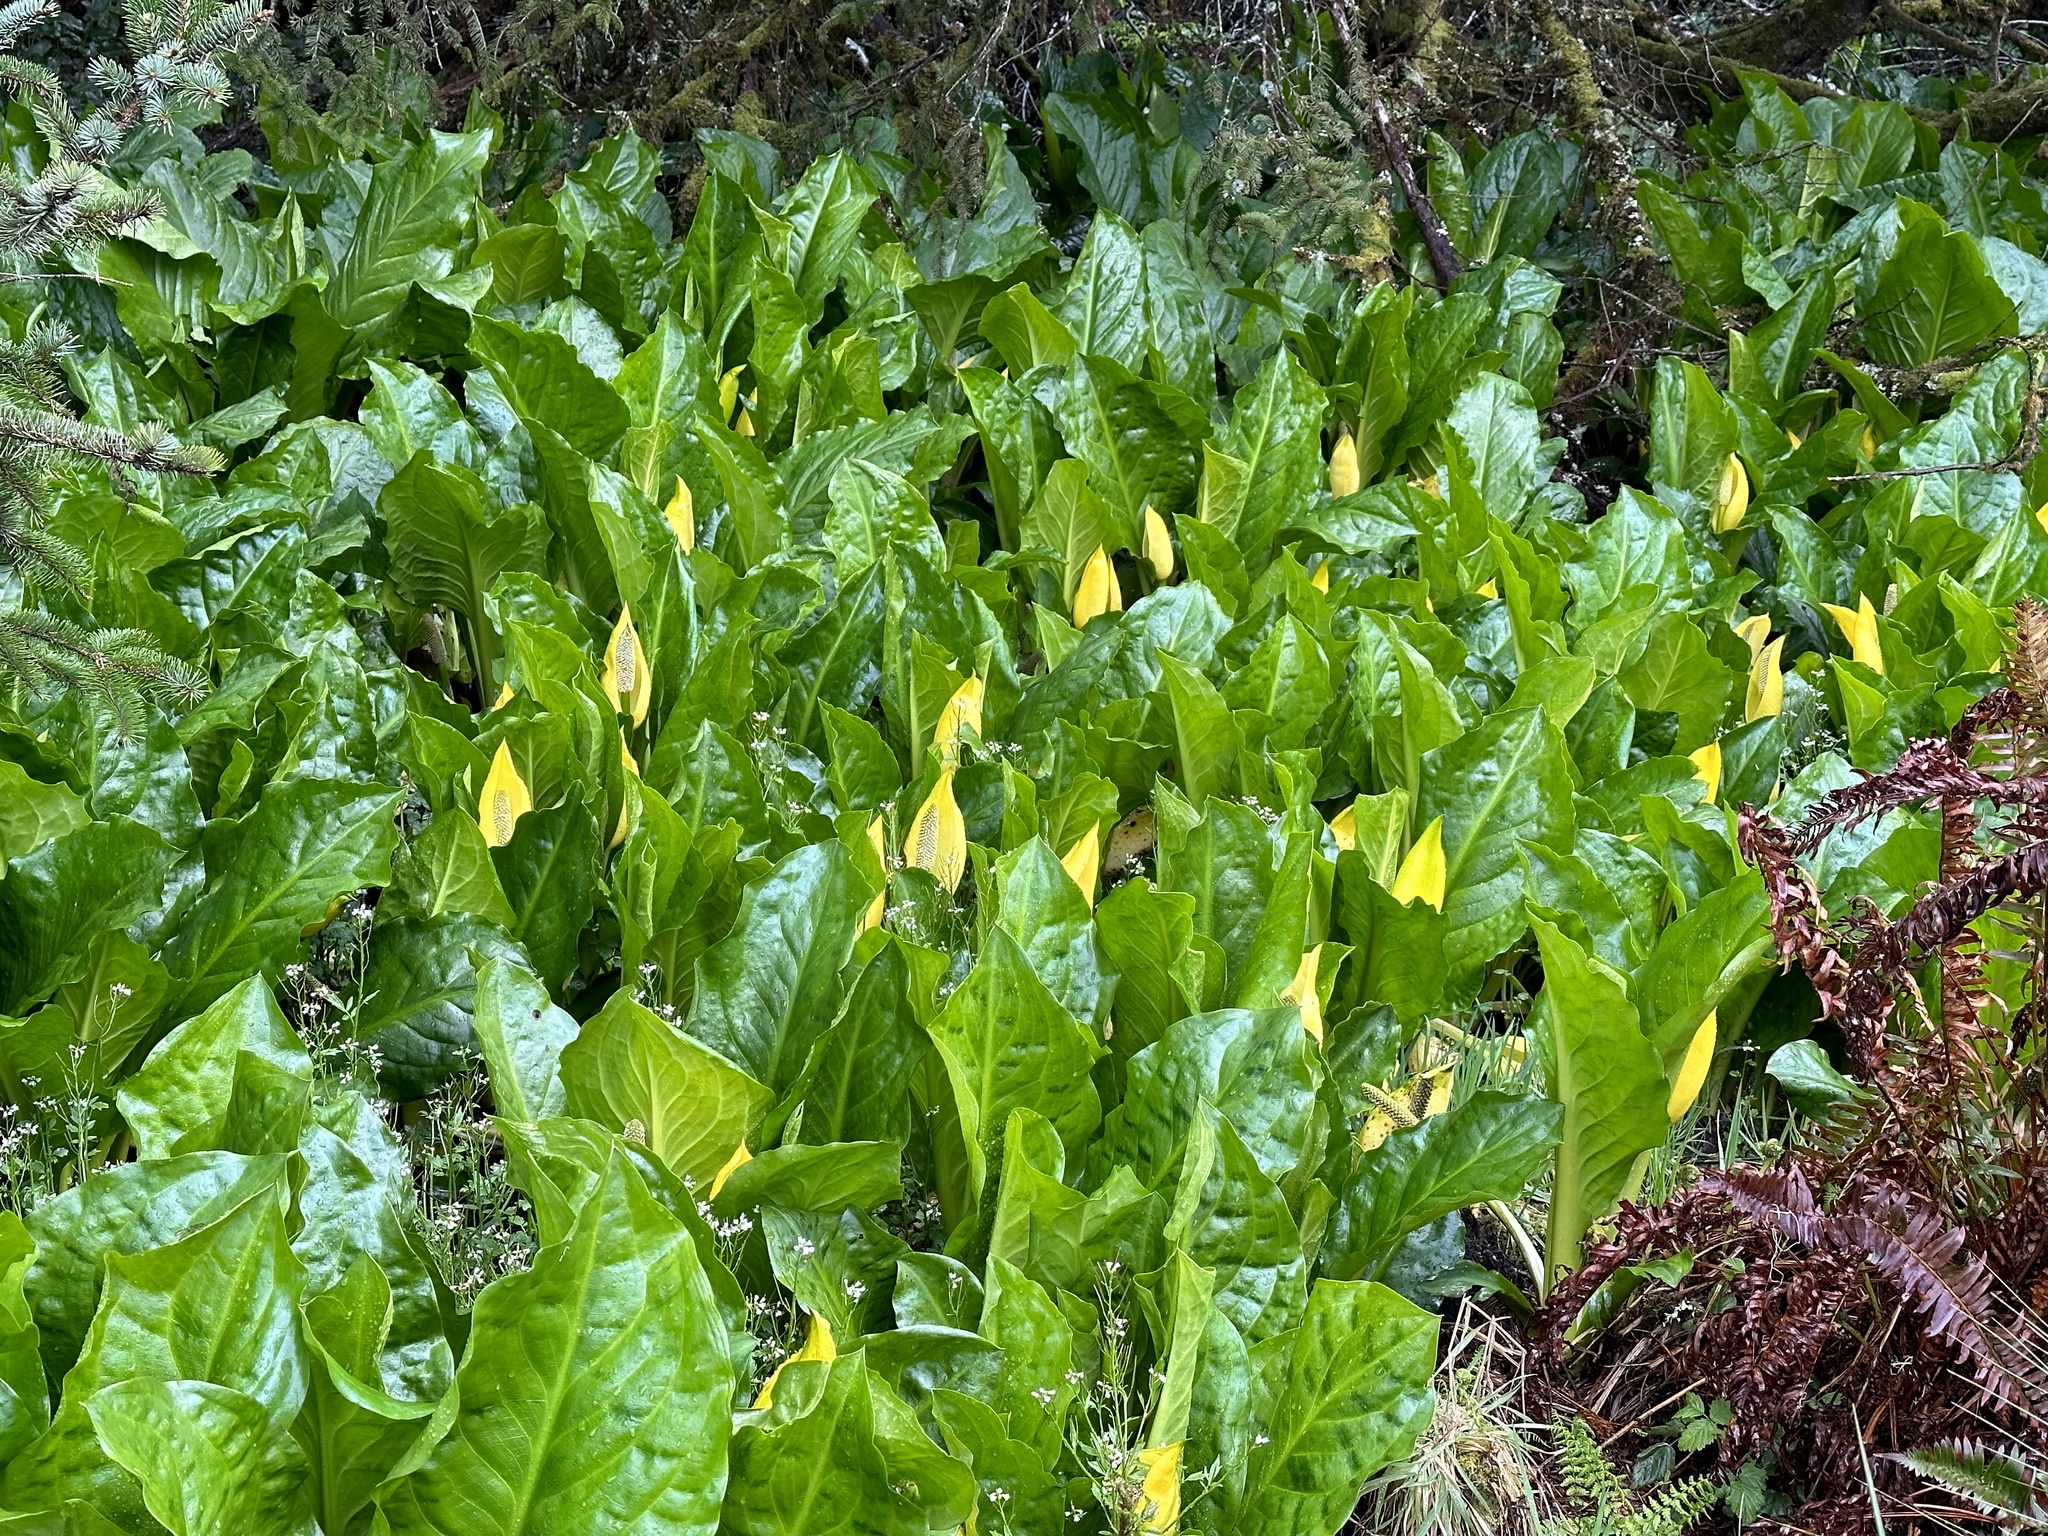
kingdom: Plantae
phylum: Tracheophyta
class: Liliopsida
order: Alismatales
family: Araceae
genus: Lysichiton
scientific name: Lysichiton americanus
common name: American skunk cabbage
